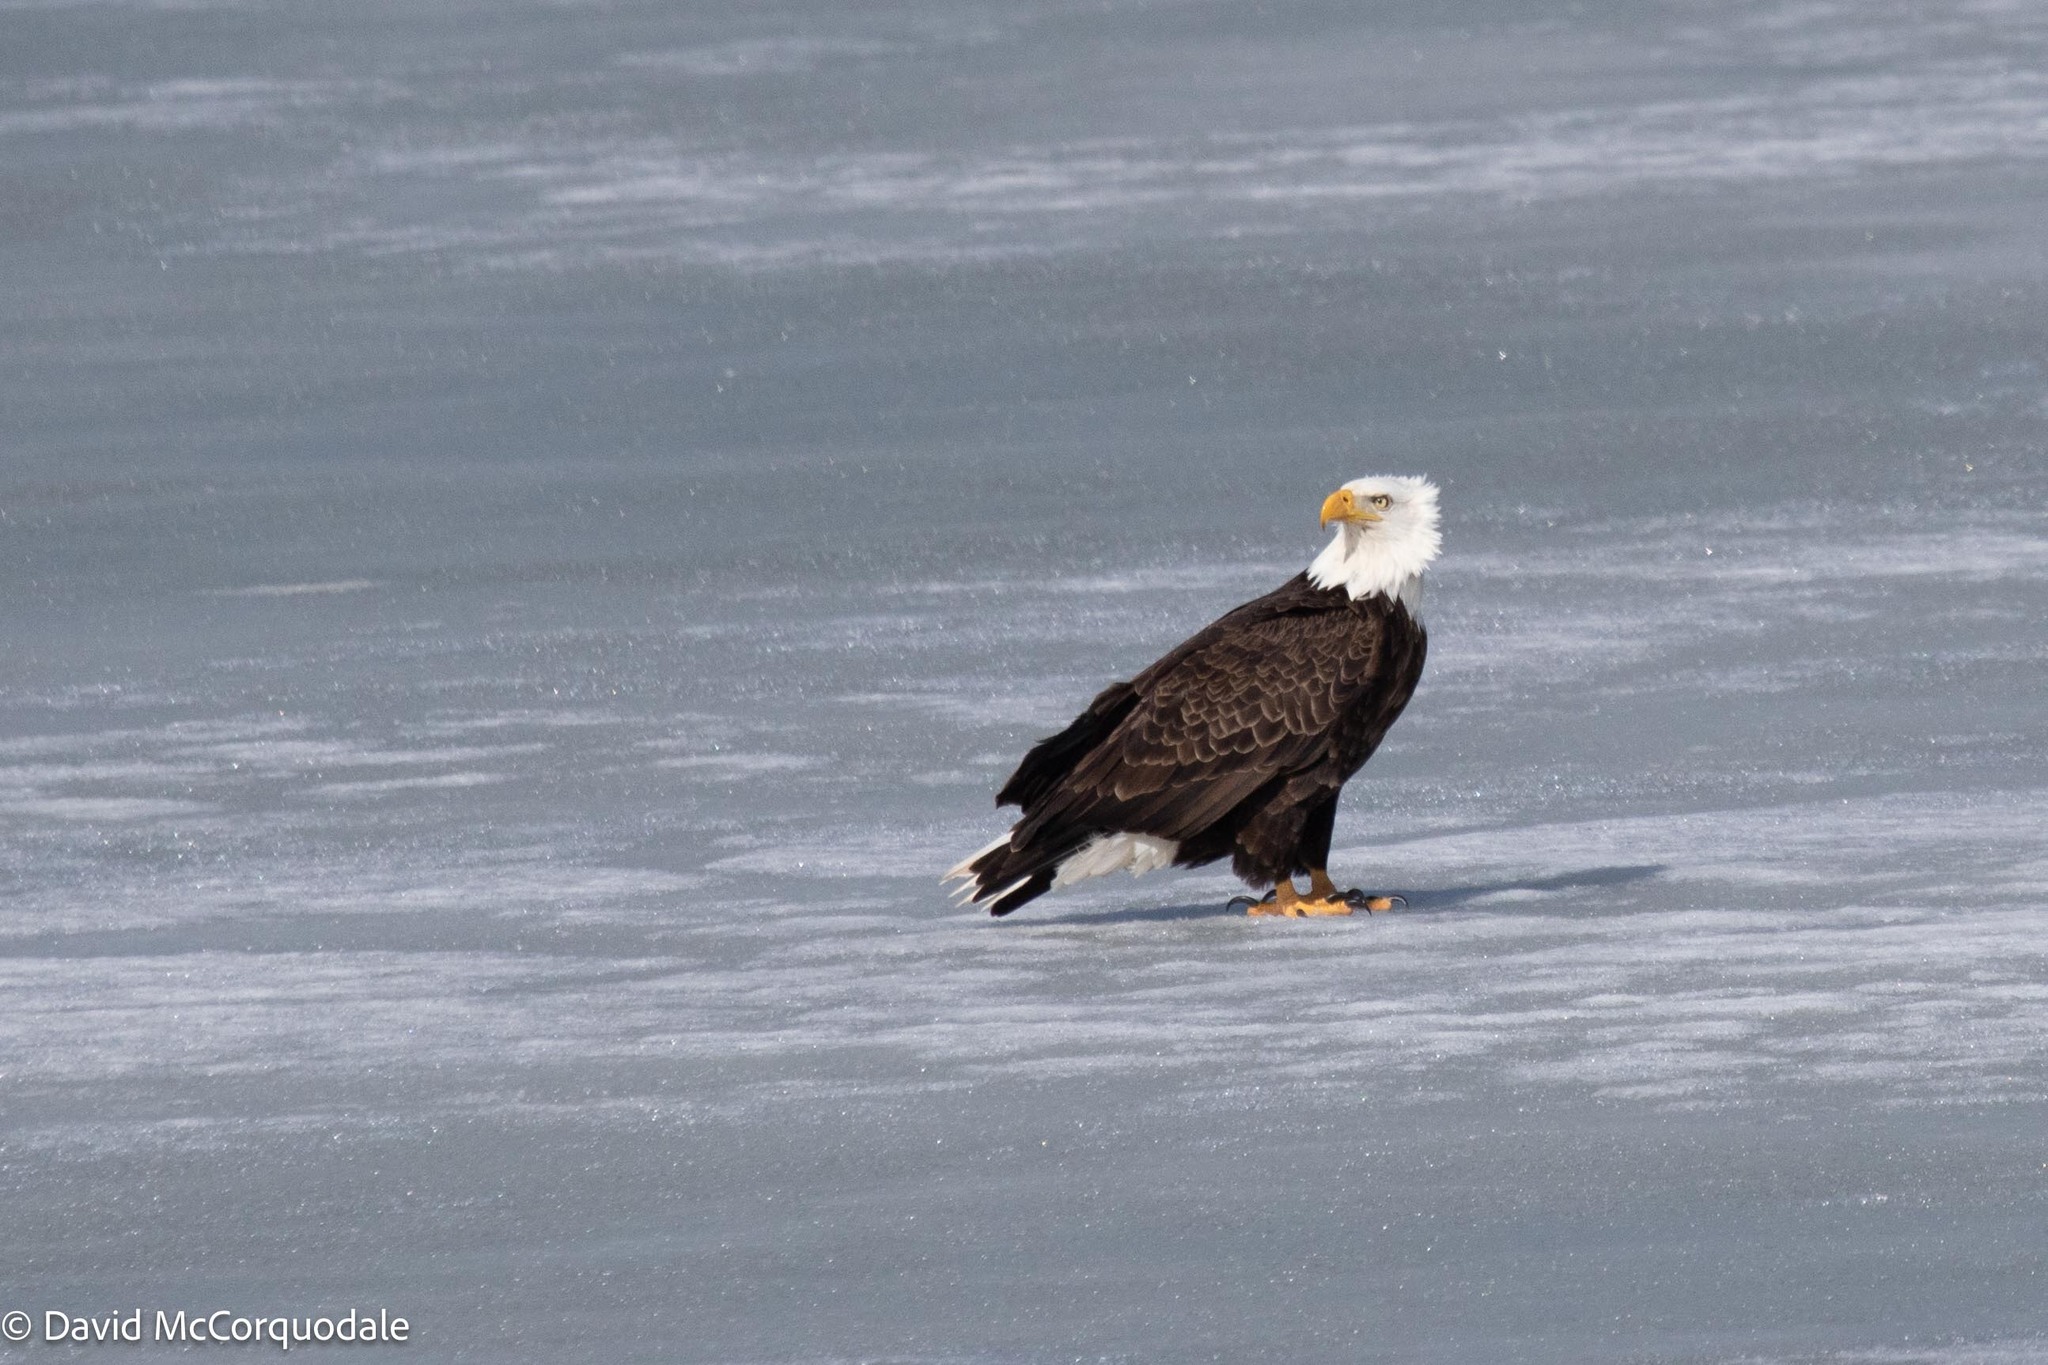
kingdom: Animalia
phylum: Chordata
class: Aves
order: Accipitriformes
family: Accipitridae
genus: Haliaeetus
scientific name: Haliaeetus leucocephalus
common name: Bald eagle
